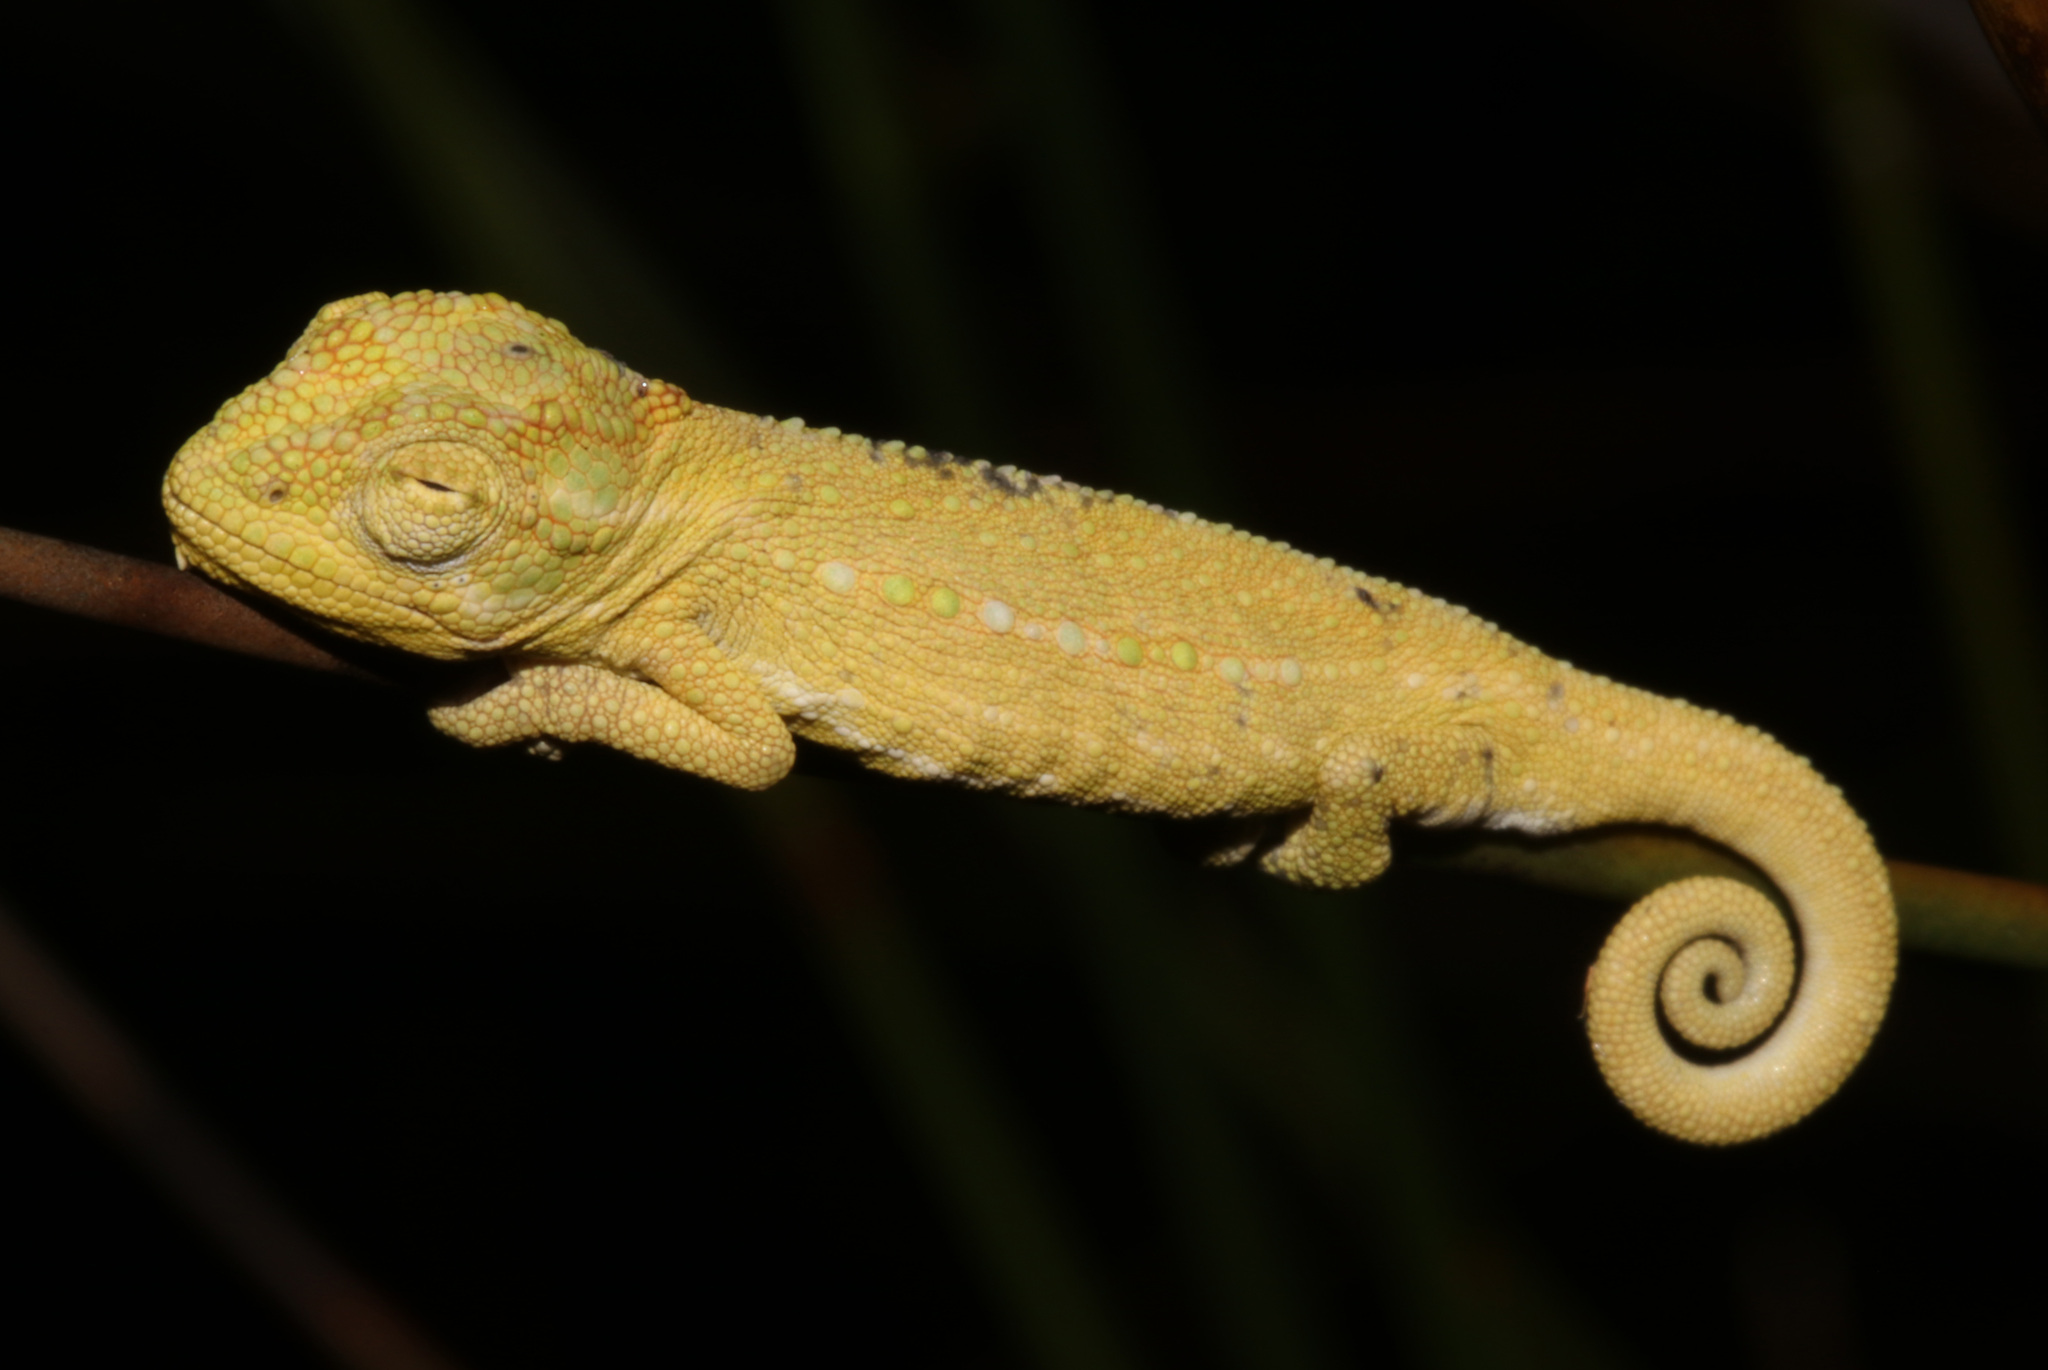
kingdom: Animalia
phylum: Chordata
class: Squamata
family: Chamaeleonidae
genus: Bradypodion
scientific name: Bradypodion pumilum
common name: Cape dwarf chameleon
